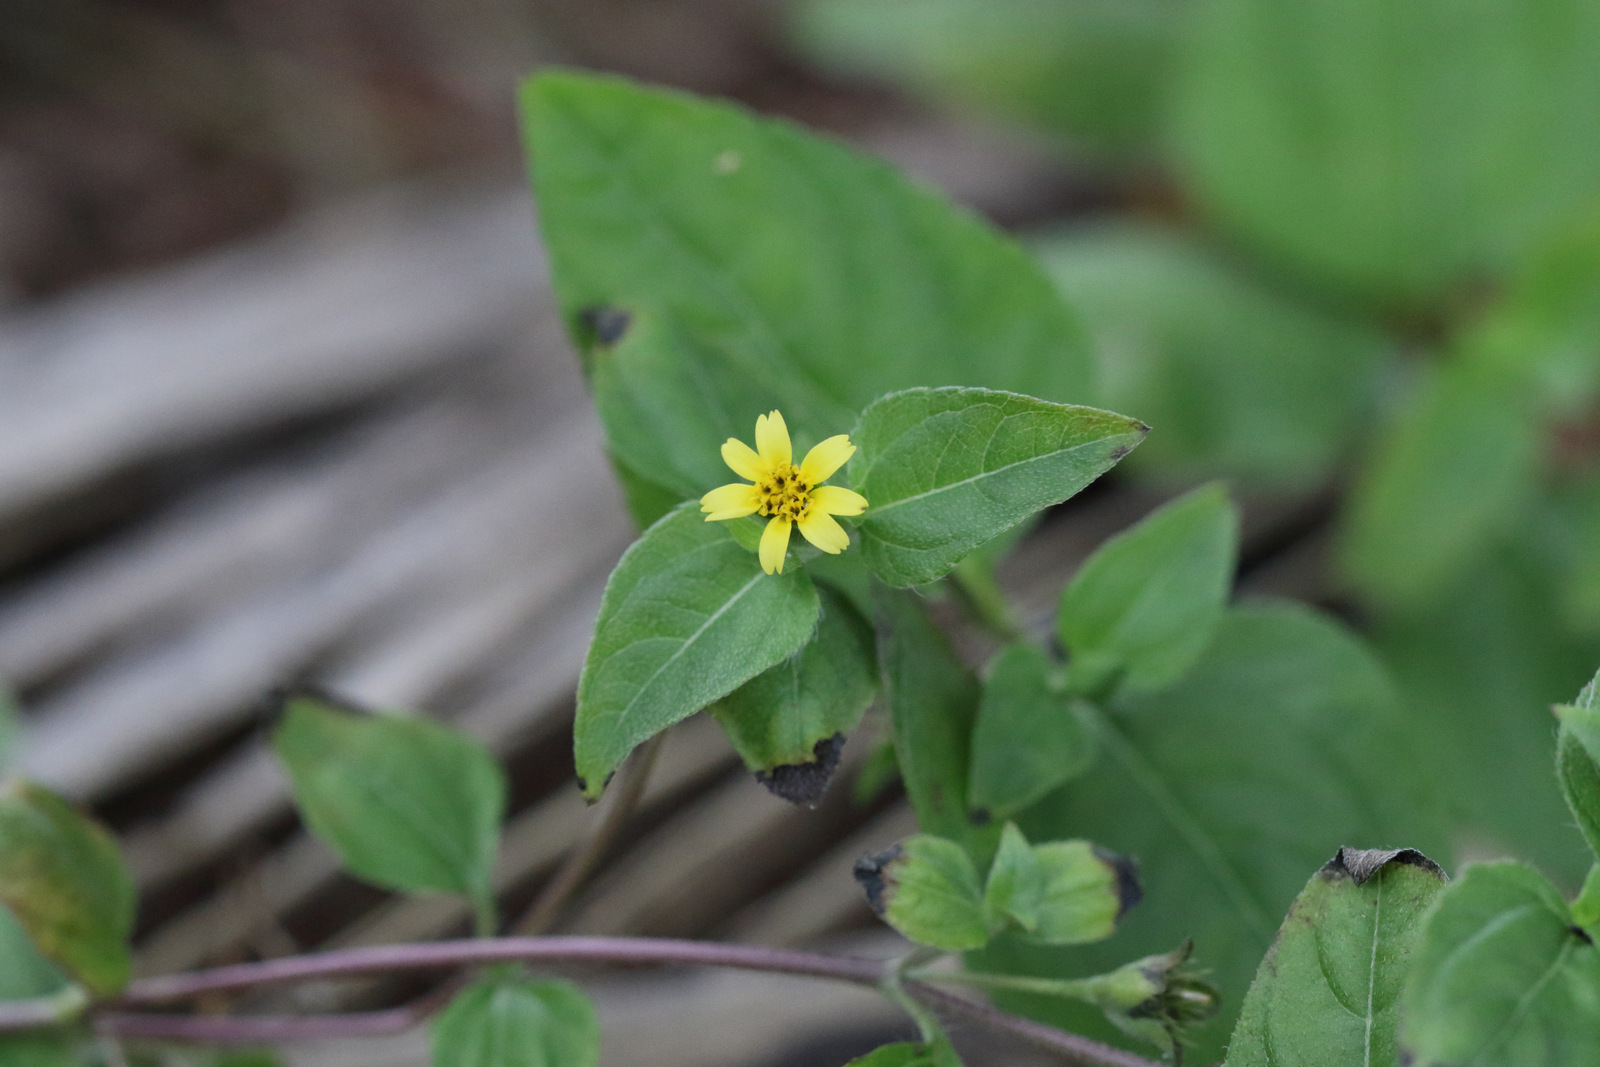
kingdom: Plantae
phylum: Tracheophyta
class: Magnoliopsida
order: Asterales
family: Asteraceae
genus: Calyptocarpus
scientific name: Calyptocarpus vialis
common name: Straggler daisy
